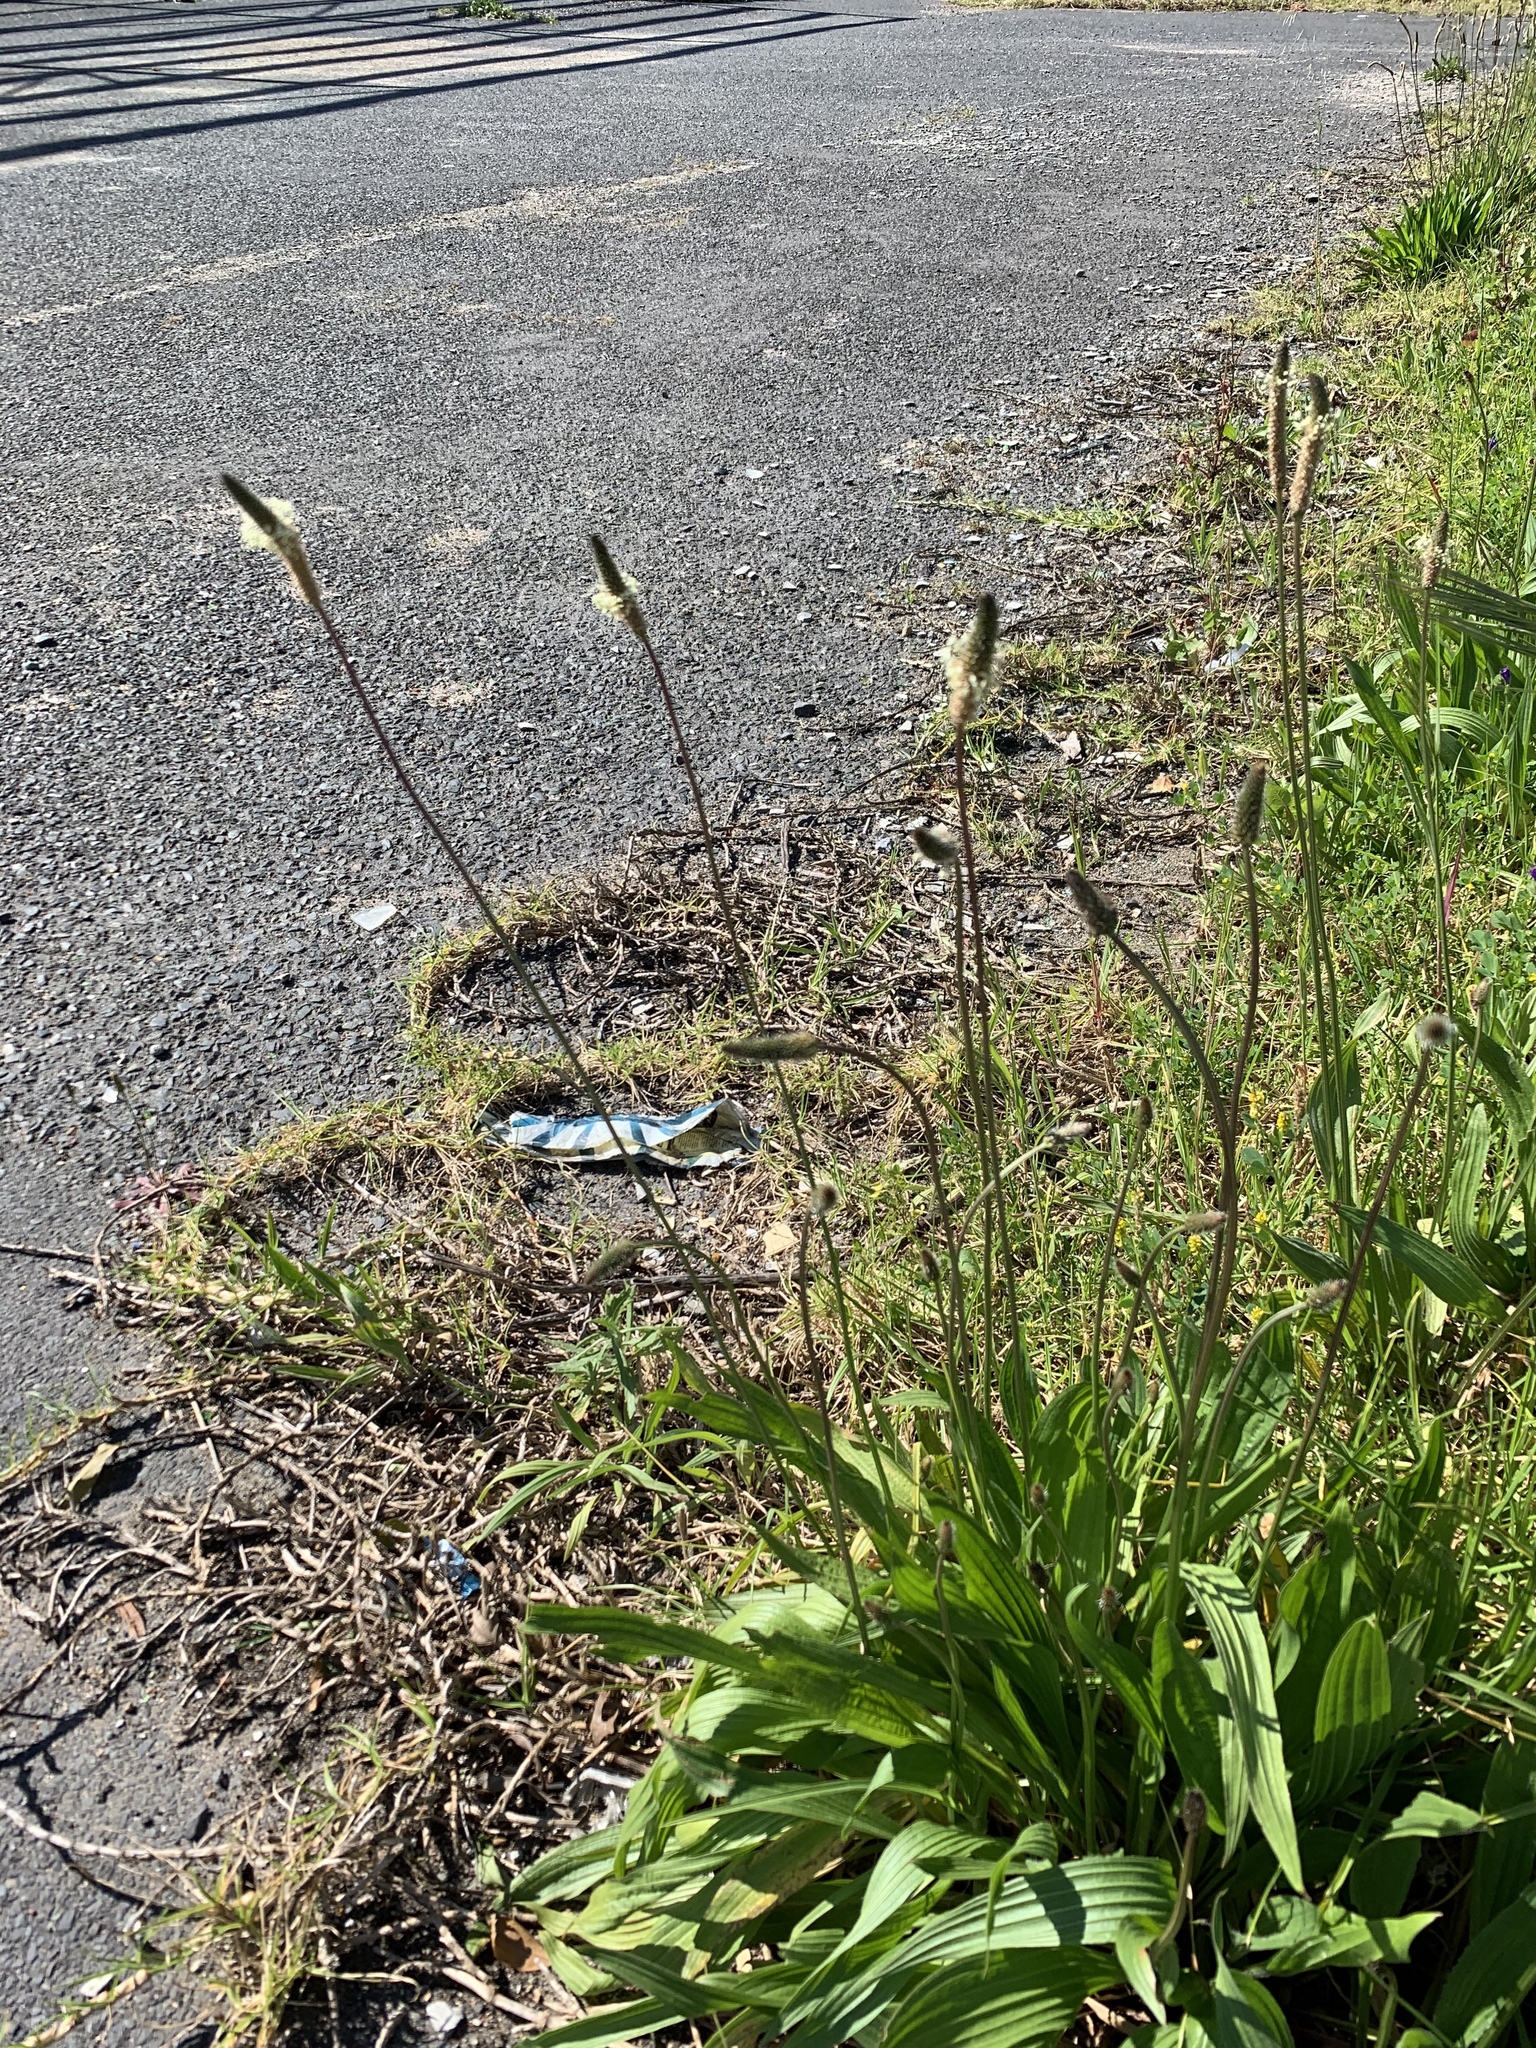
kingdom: Plantae
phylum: Tracheophyta
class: Magnoliopsida
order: Lamiales
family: Plantaginaceae
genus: Plantago
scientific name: Plantago lanceolata
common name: Ribwort plantain
